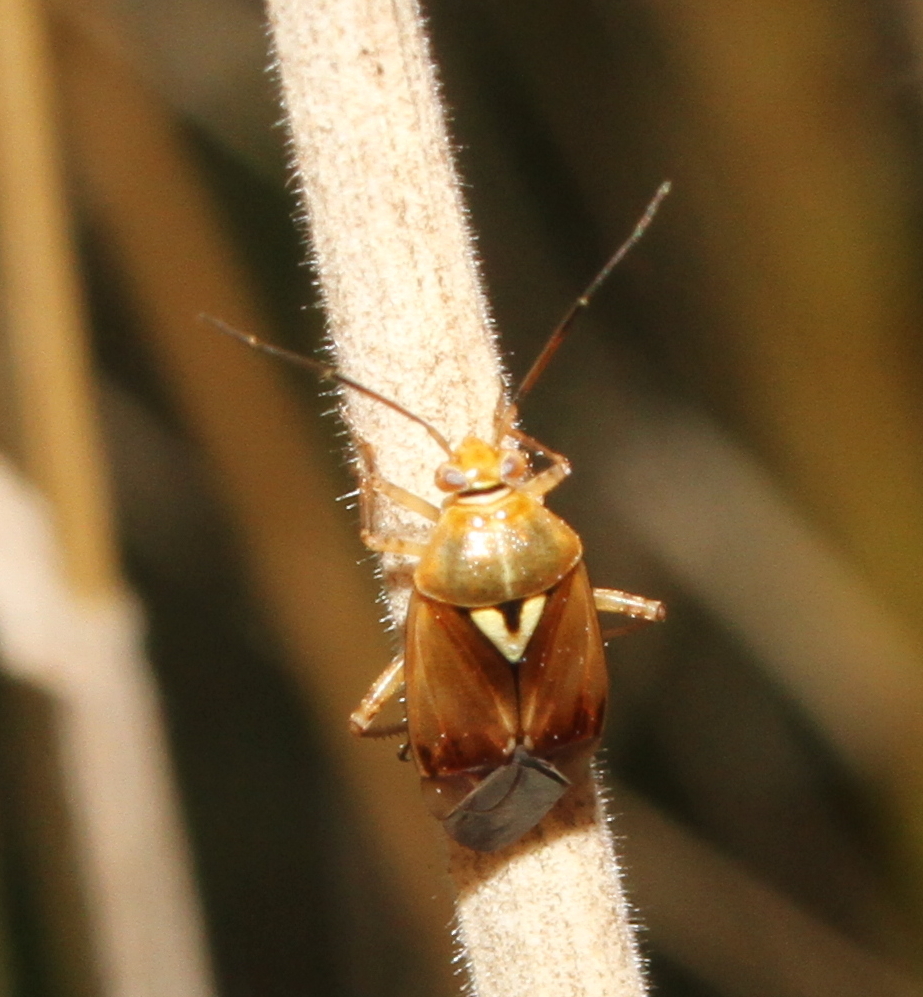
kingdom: Animalia
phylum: Arthropoda
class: Insecta
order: Hemiptera
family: Miridae
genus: Lygus
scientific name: Lygus pratensis
